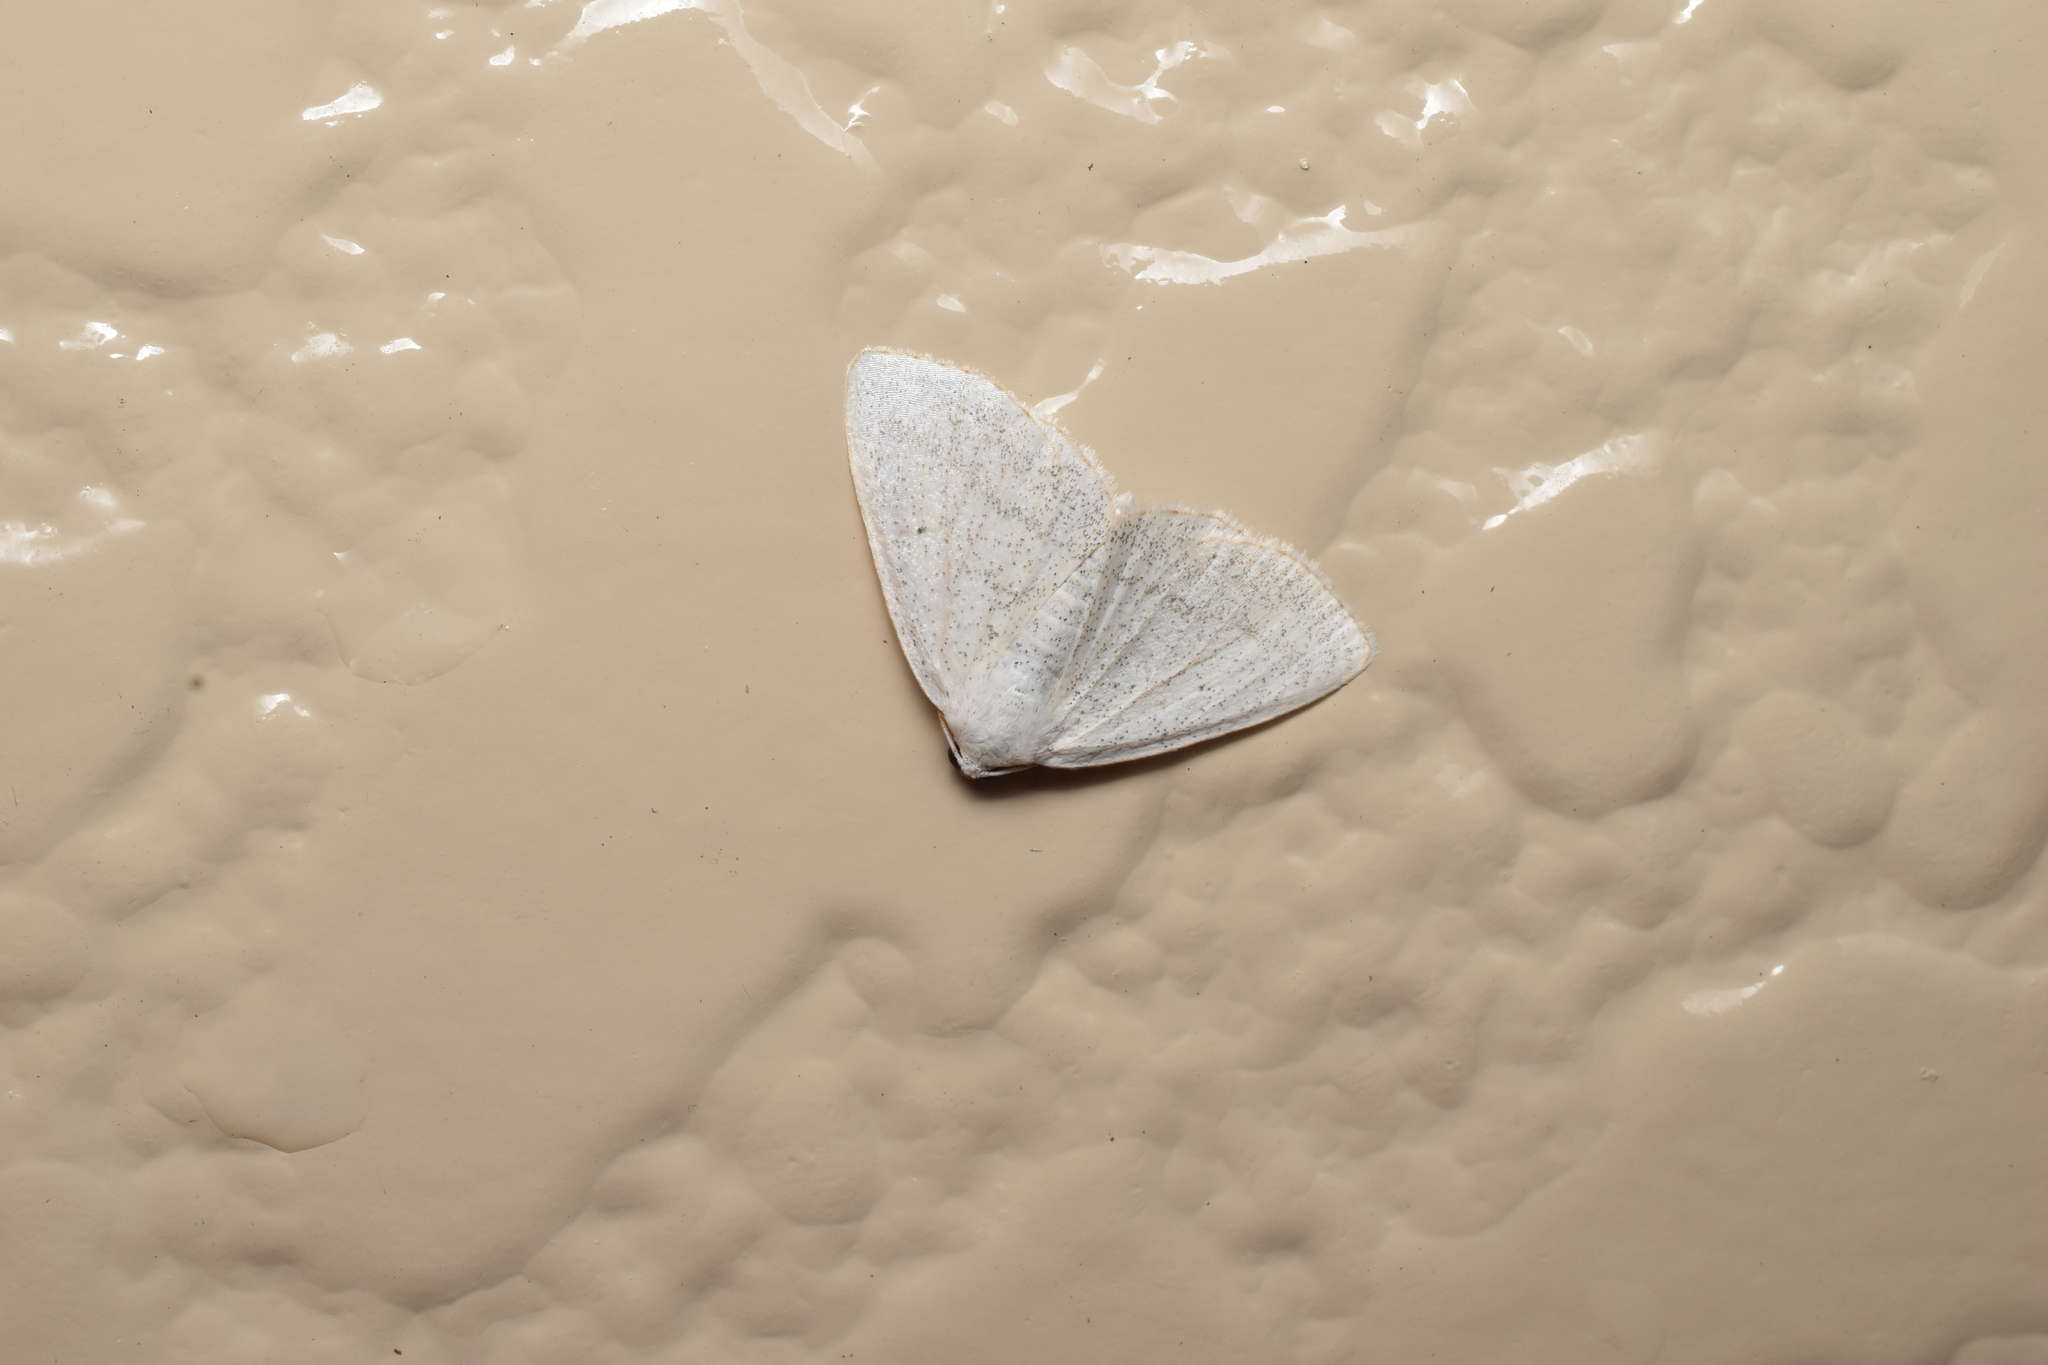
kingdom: Animalia
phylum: Arthropoda
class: Insecta
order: Lepidoptera
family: Geometridae
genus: Lomographa
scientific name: Lomographa subspersata
